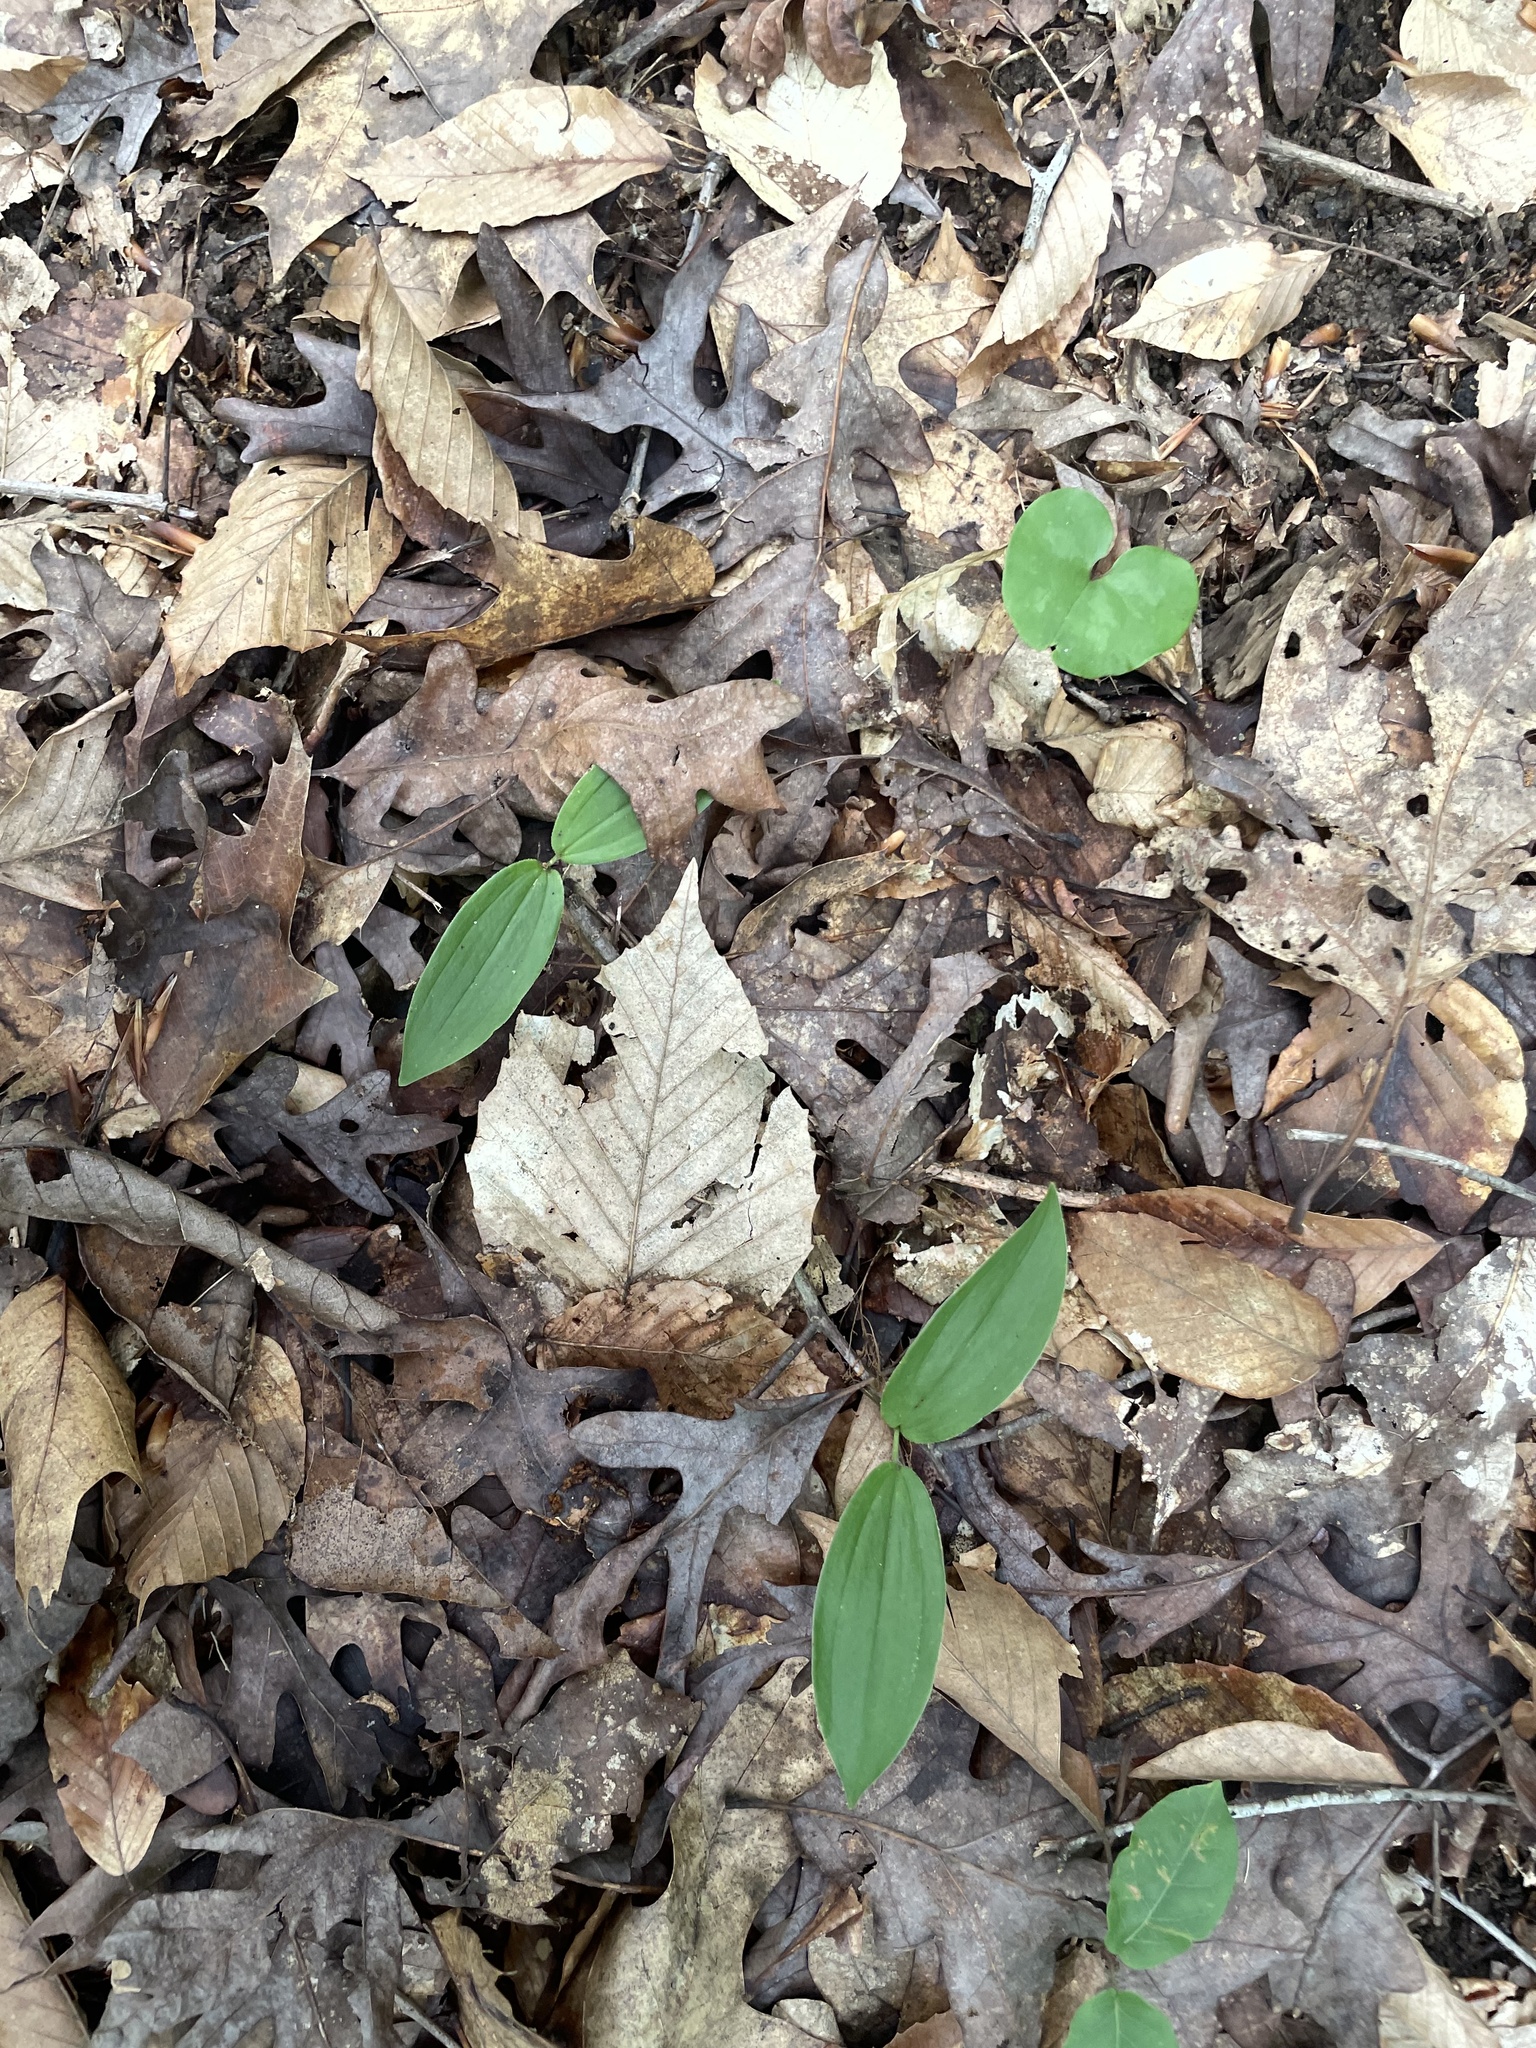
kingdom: Plantae
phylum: Tracheophyta
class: Liliopsida
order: Asparagales
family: Asparagaceae
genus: Maianthemum
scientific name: Maianthemum racemosum
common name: False spikenard
